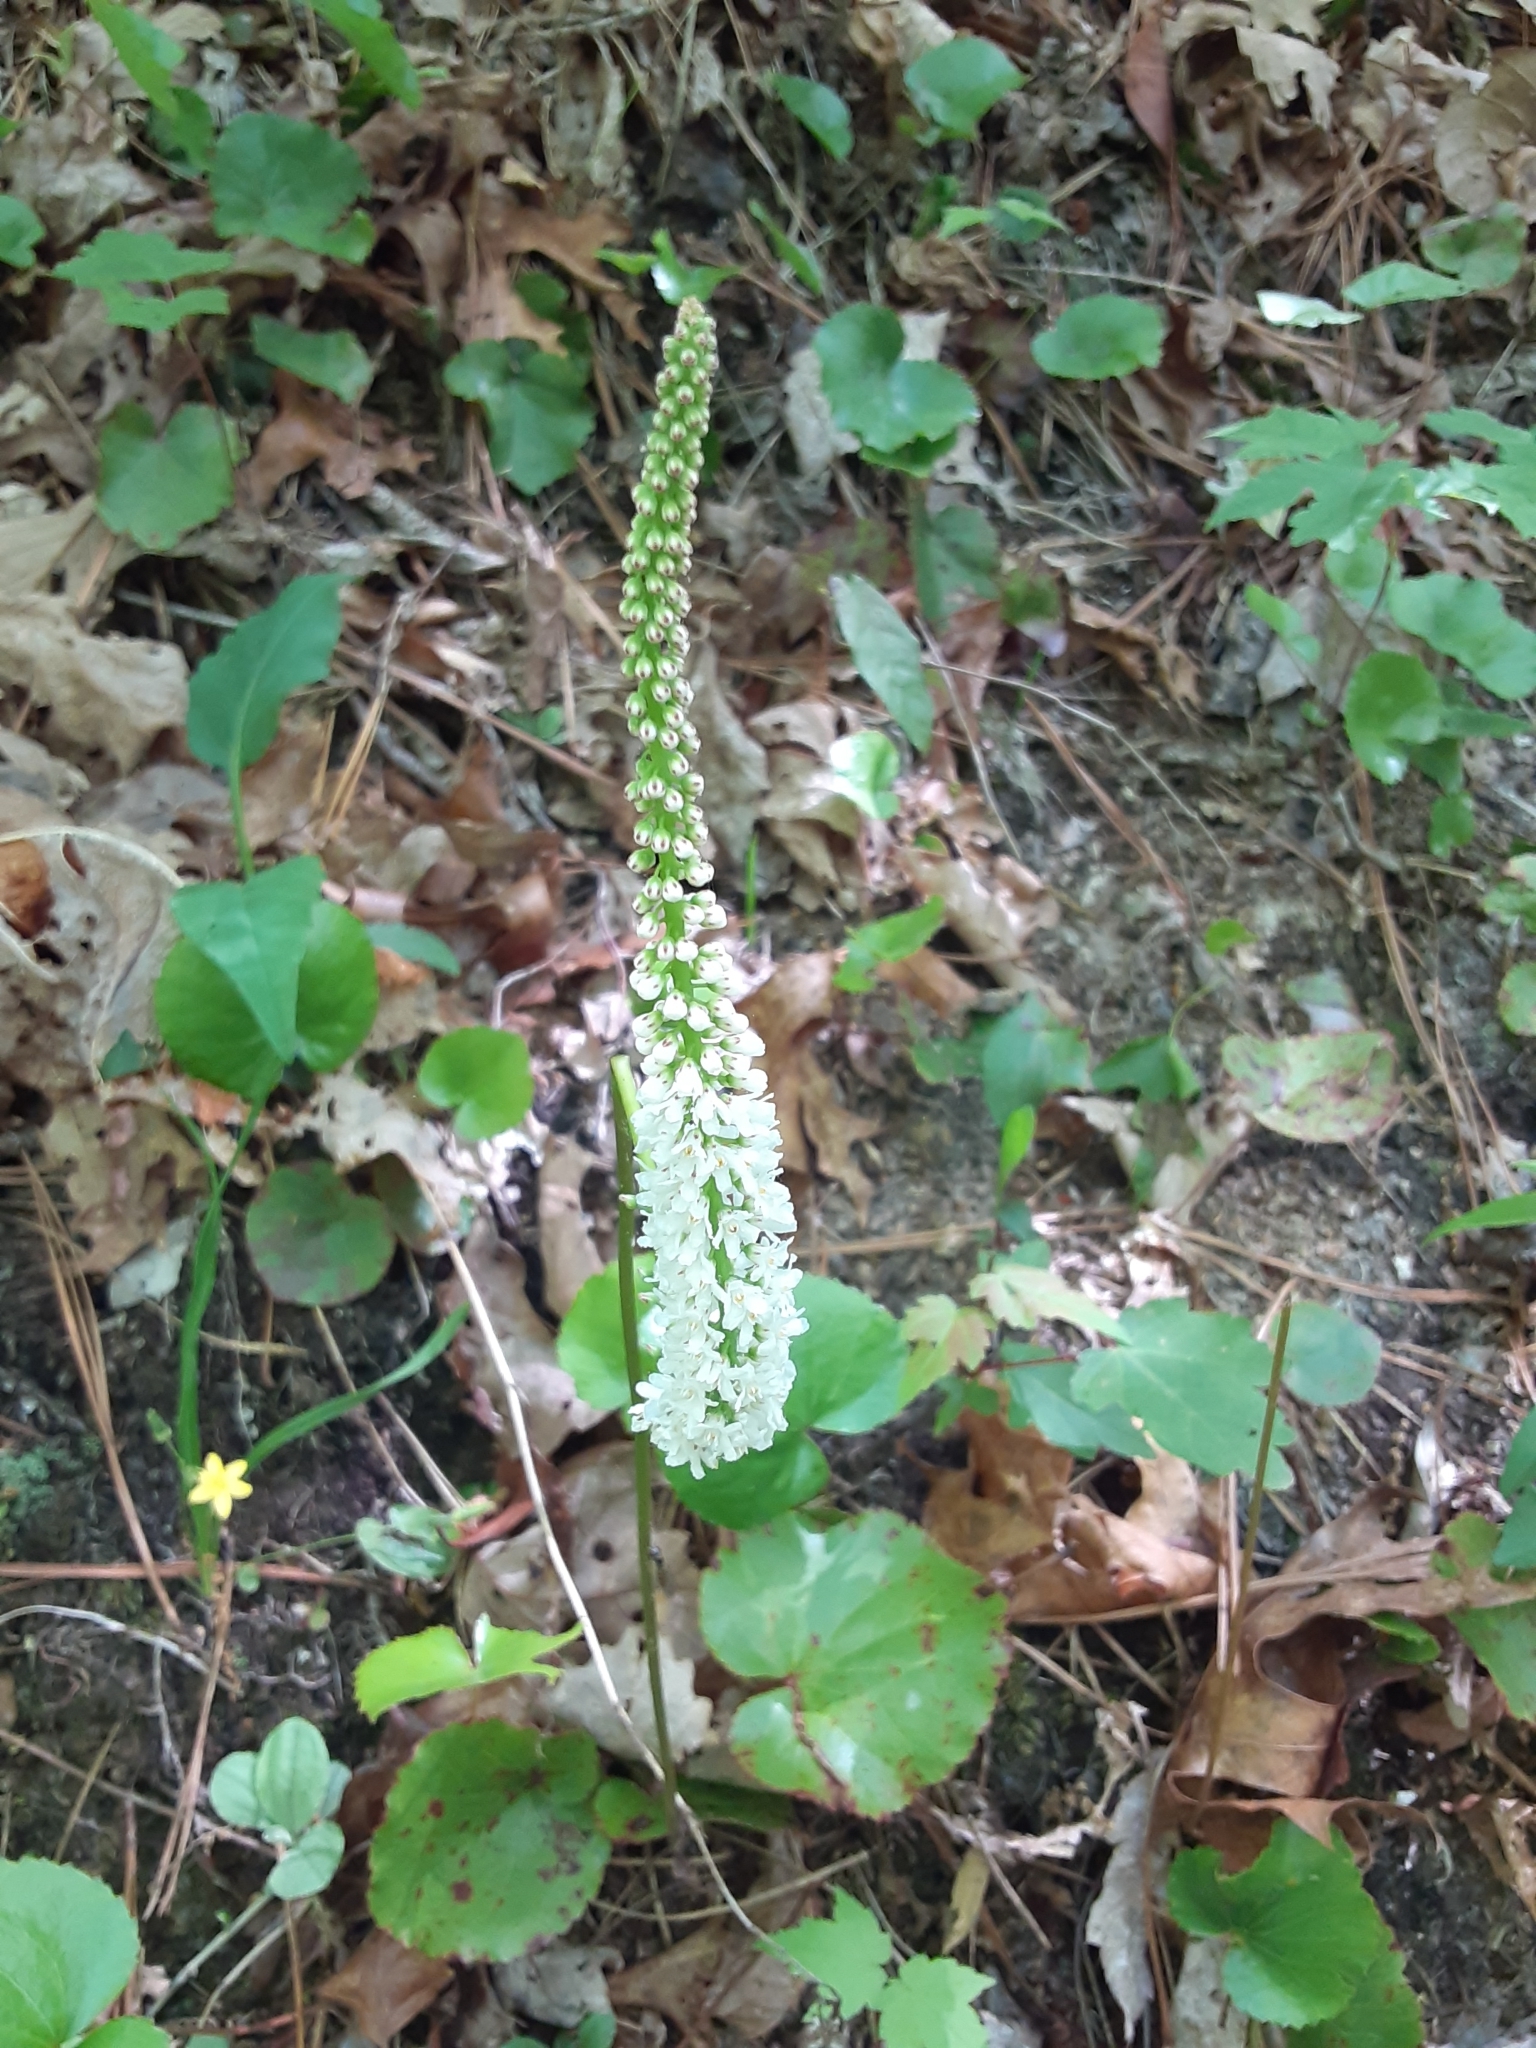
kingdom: Plantae
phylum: Tracheophyta
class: Magnoliopsida
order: Ericales
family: Diapensiaceae
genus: Galax
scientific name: Galax urceolata
